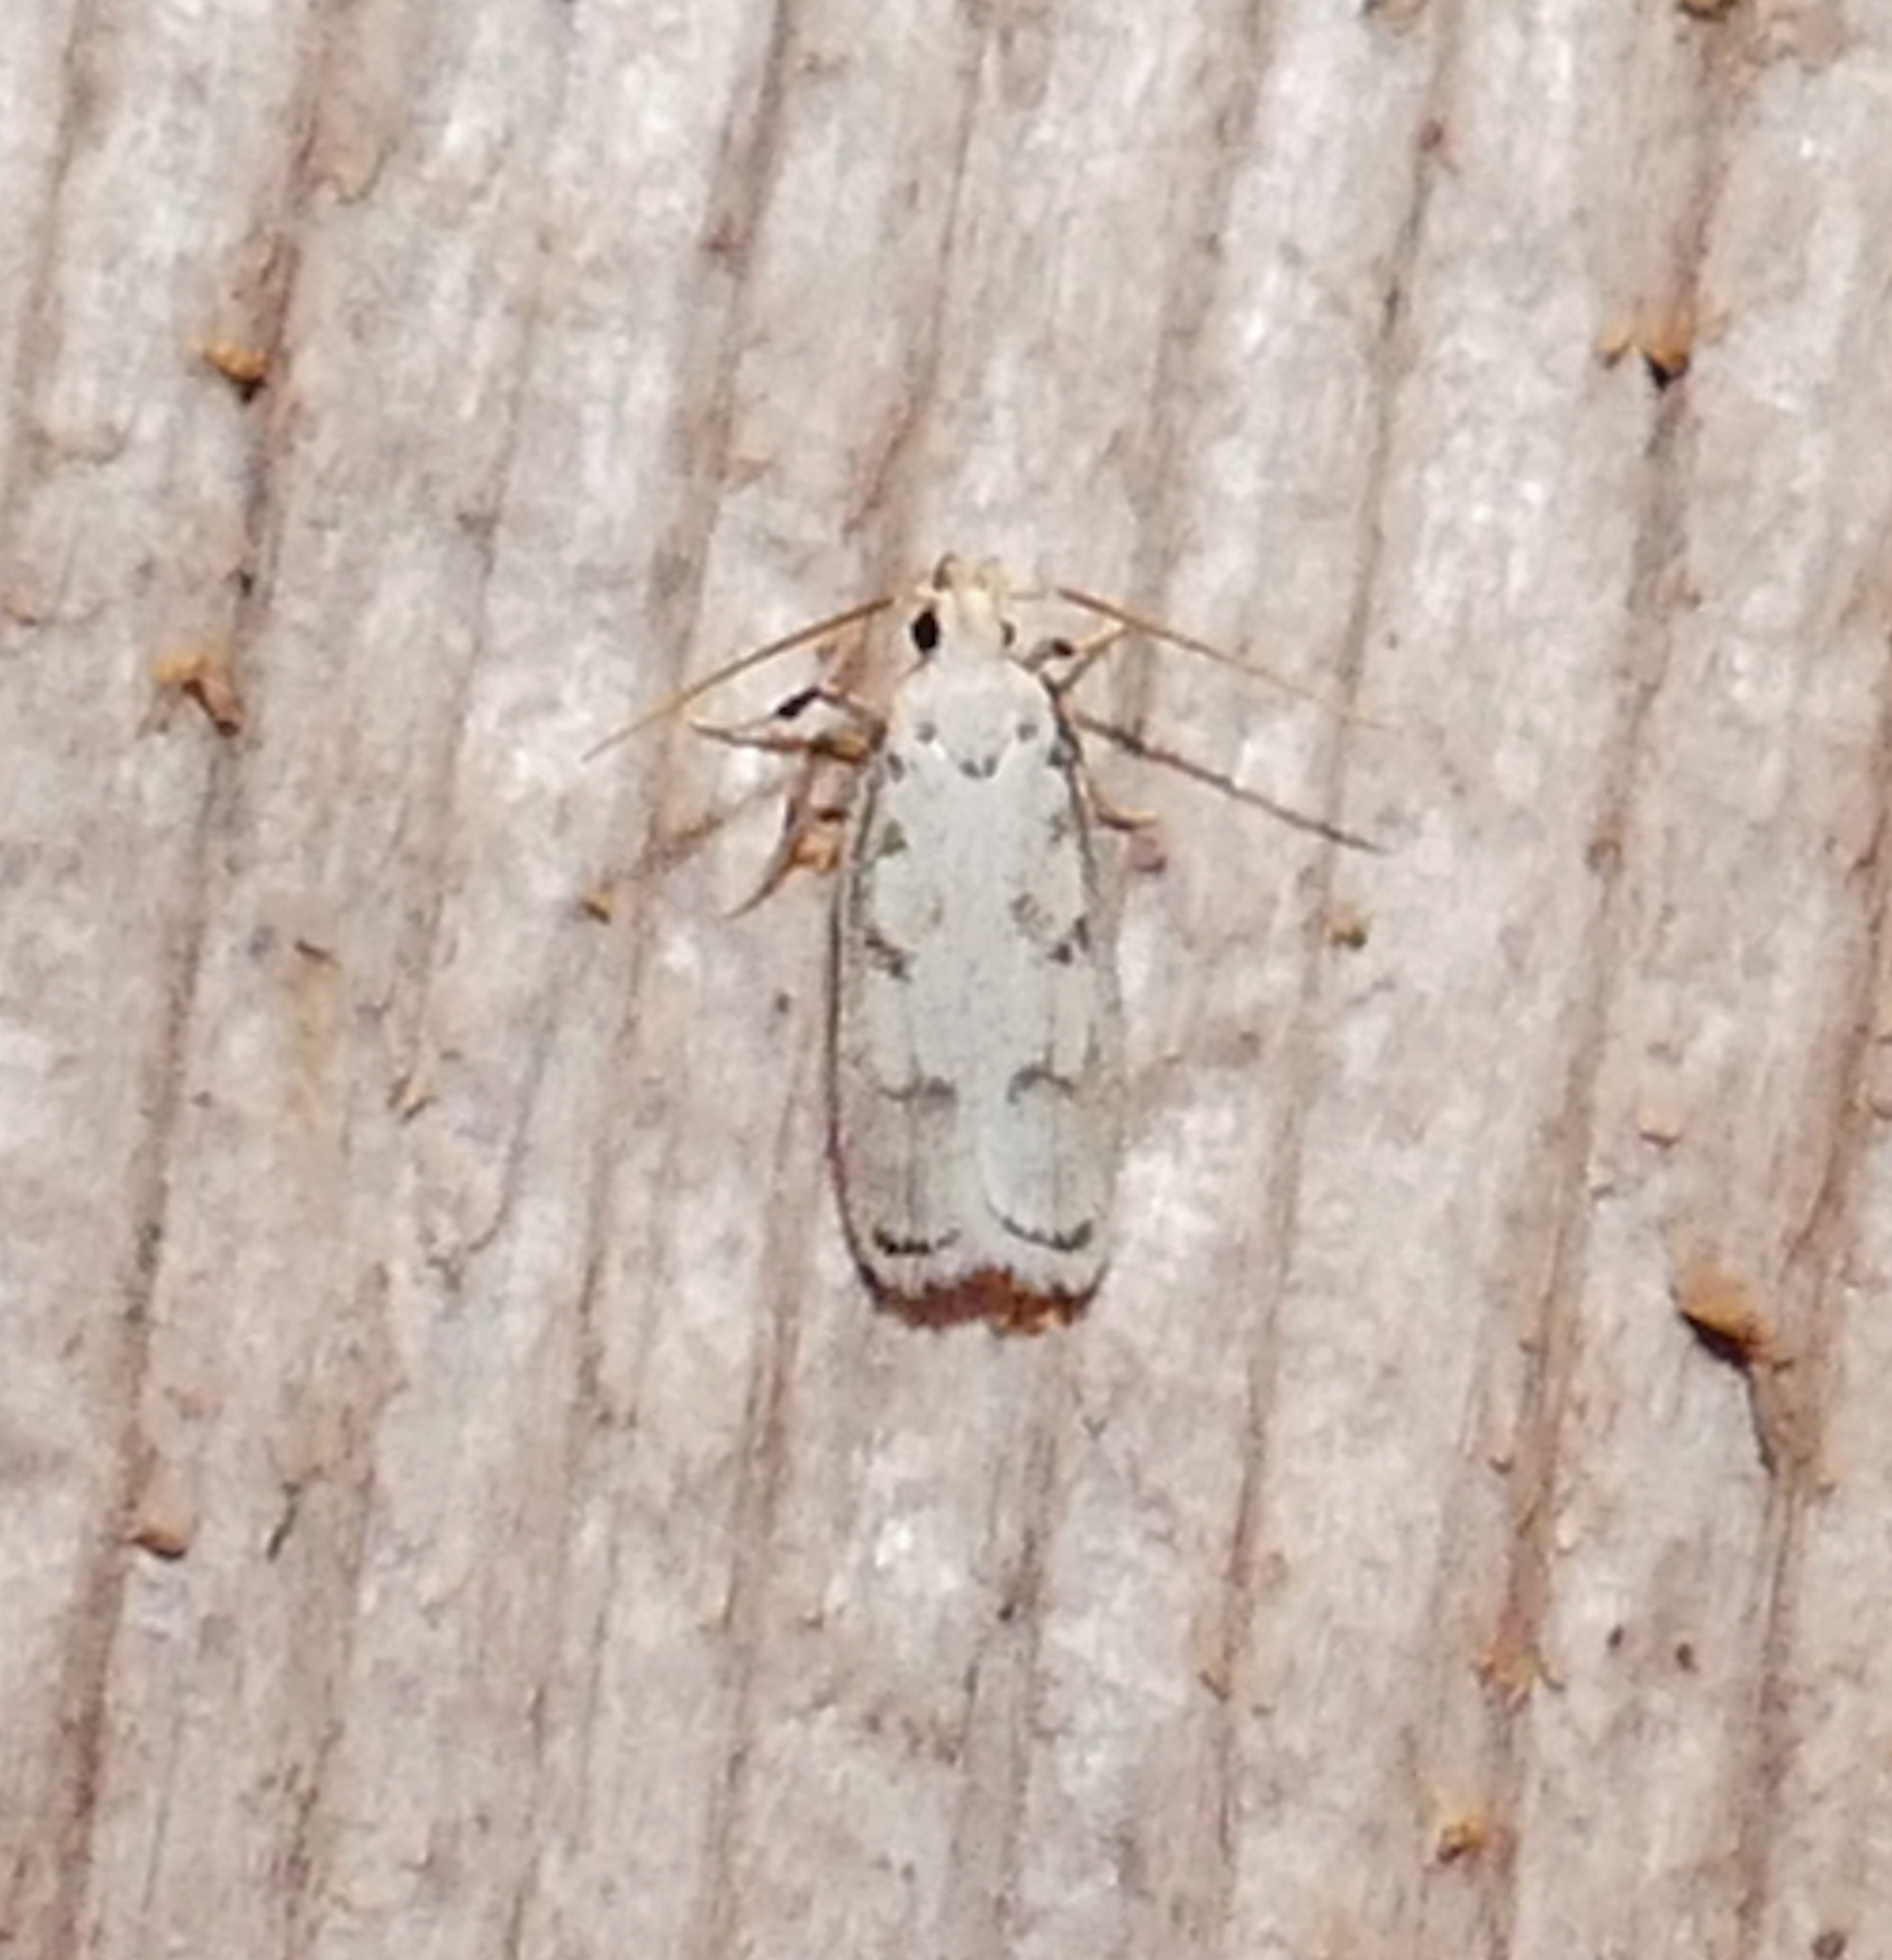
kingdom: Animalia
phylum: Arthropoda
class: Insecta
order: Lepidoptera
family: Autostichidae
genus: Glyphidocera
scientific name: Glyphidocera lactiflosella
